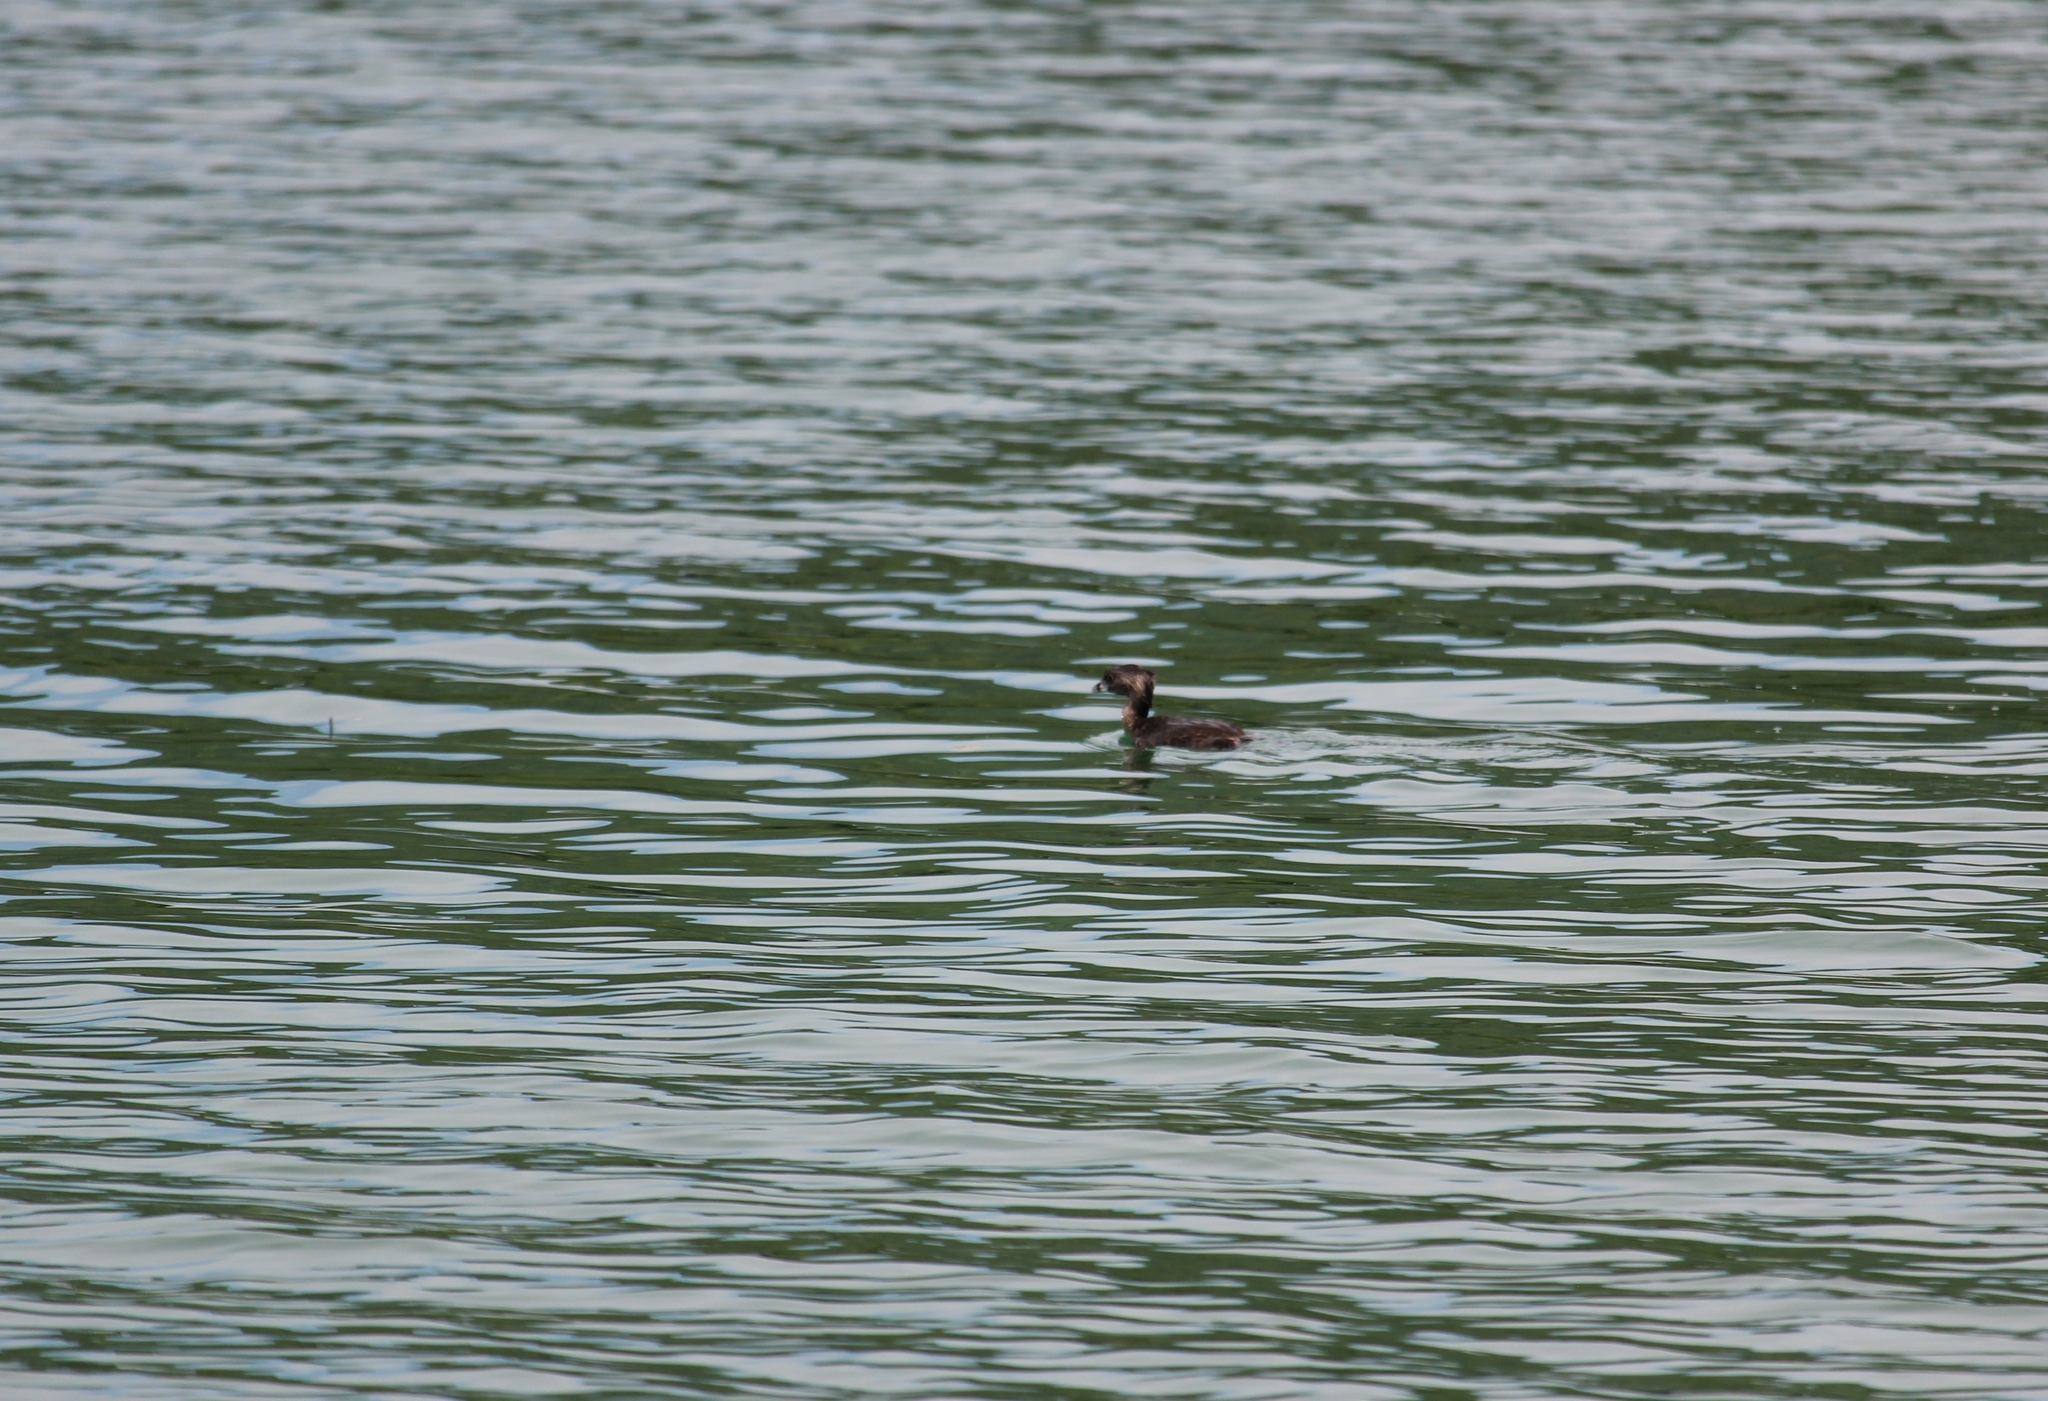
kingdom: Animalia
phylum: Chordata
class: Aves
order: Podicipediformes
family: Podicipedidae
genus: Podilymbus
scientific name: Podilymbus podiceps
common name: Pied-billed grebe
